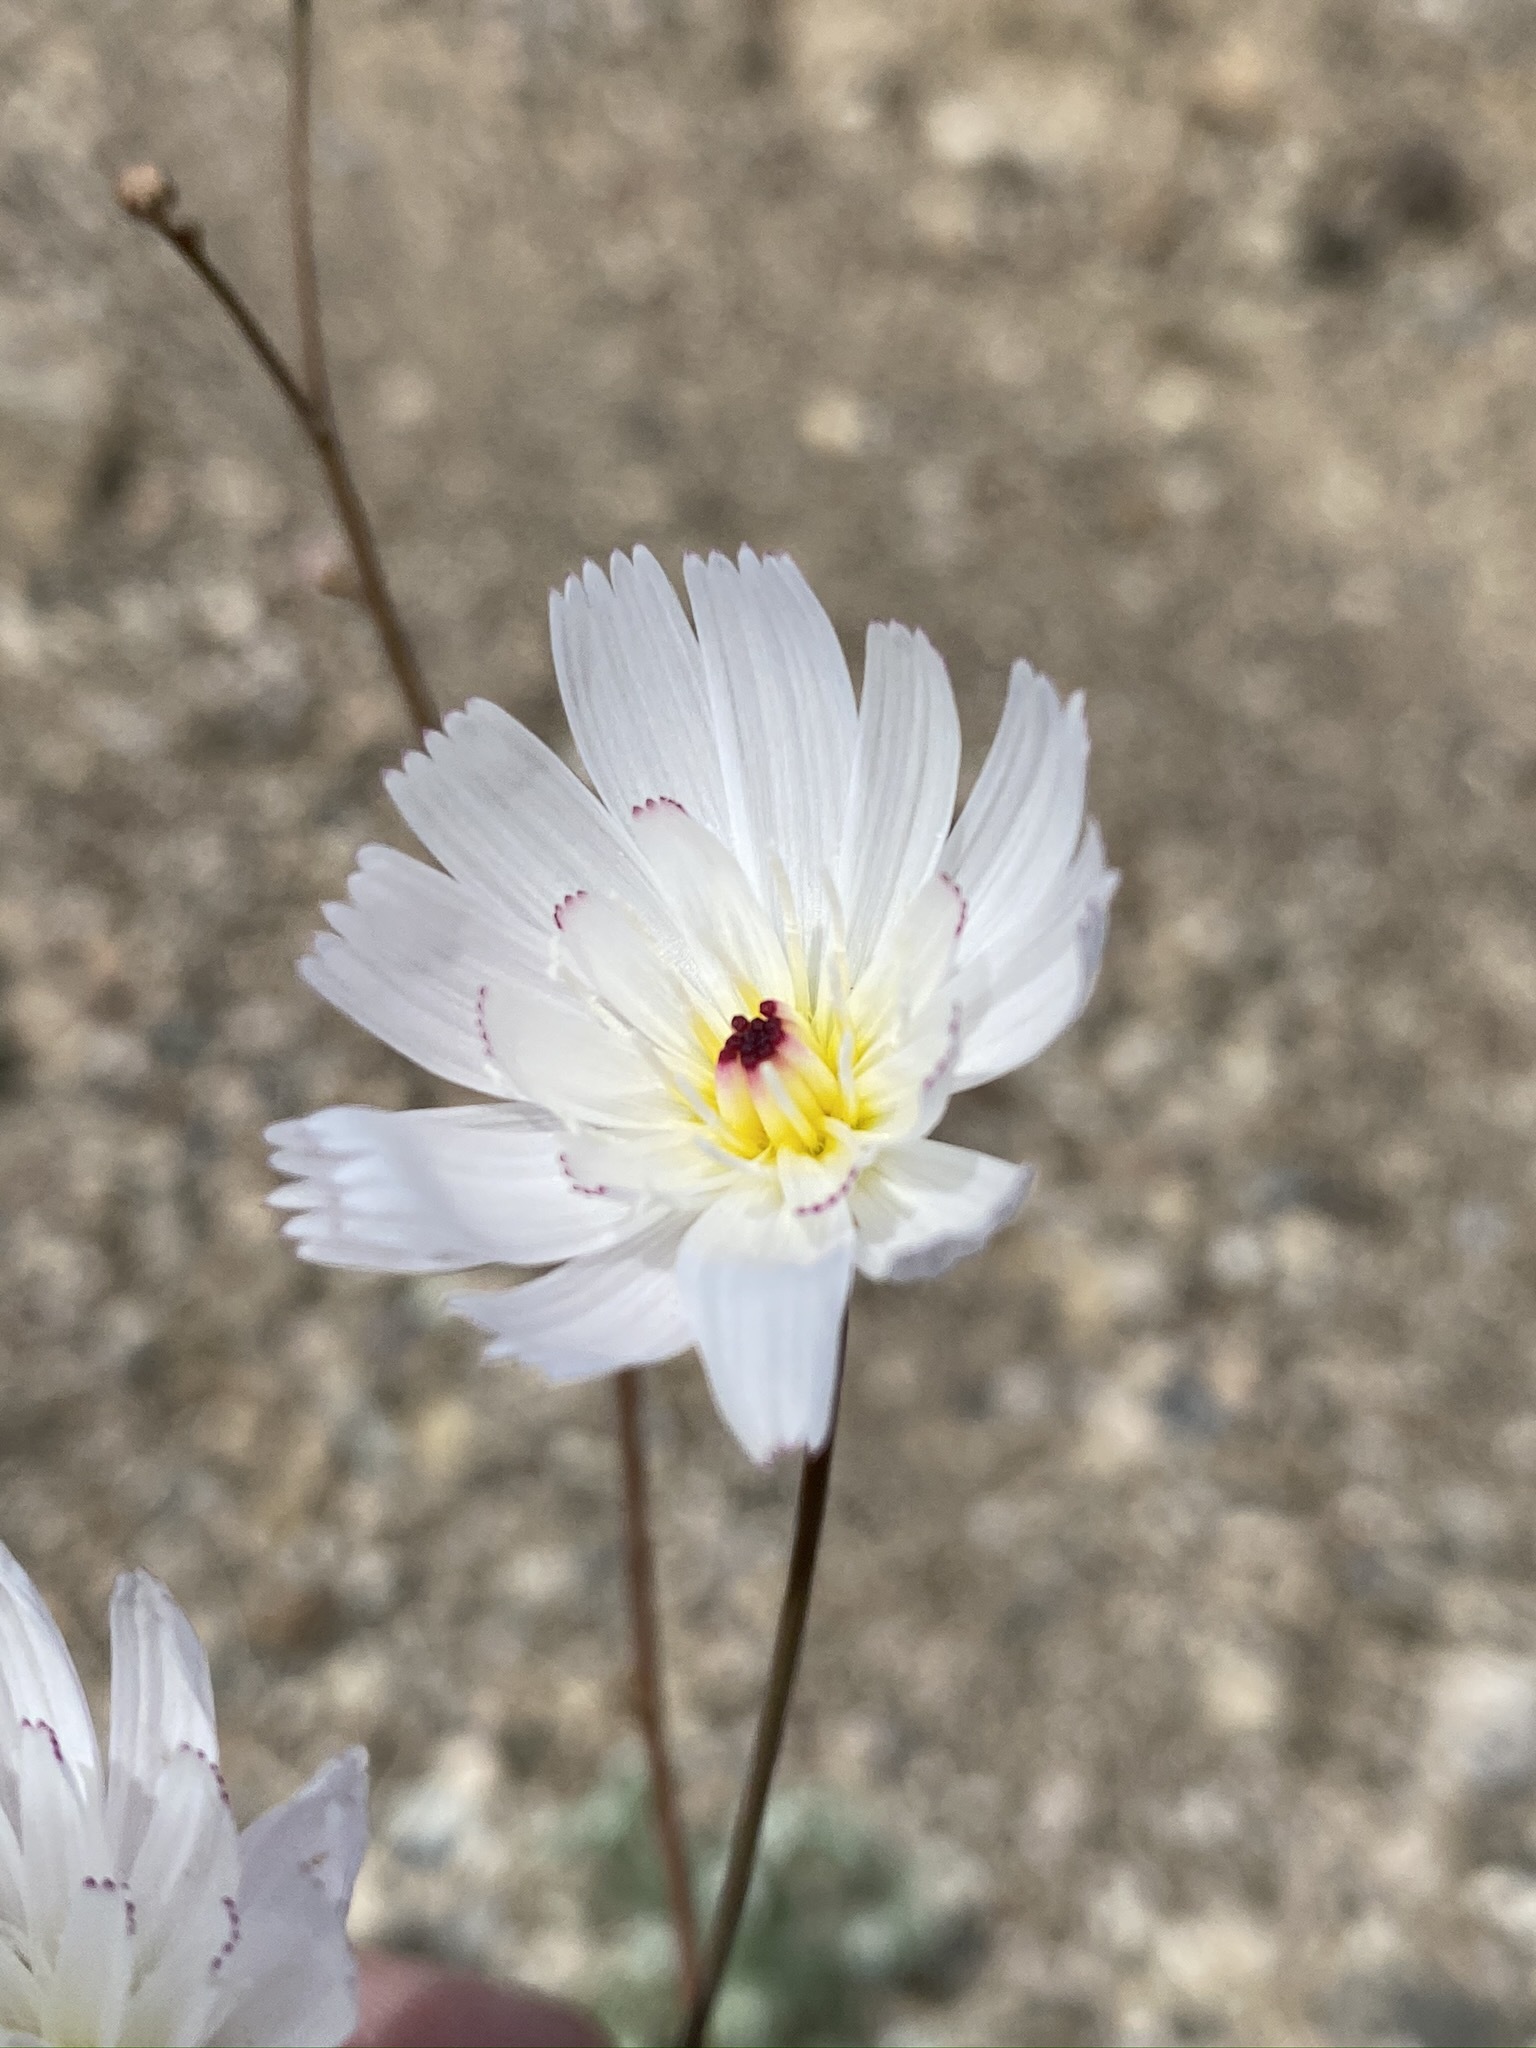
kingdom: Plantae
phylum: Tracheophyta
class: Magnoliopsida
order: Asterales
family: Asteraceae
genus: Atrichoseris
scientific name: Atrichoseris platyphylla
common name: Tobaccoweed
